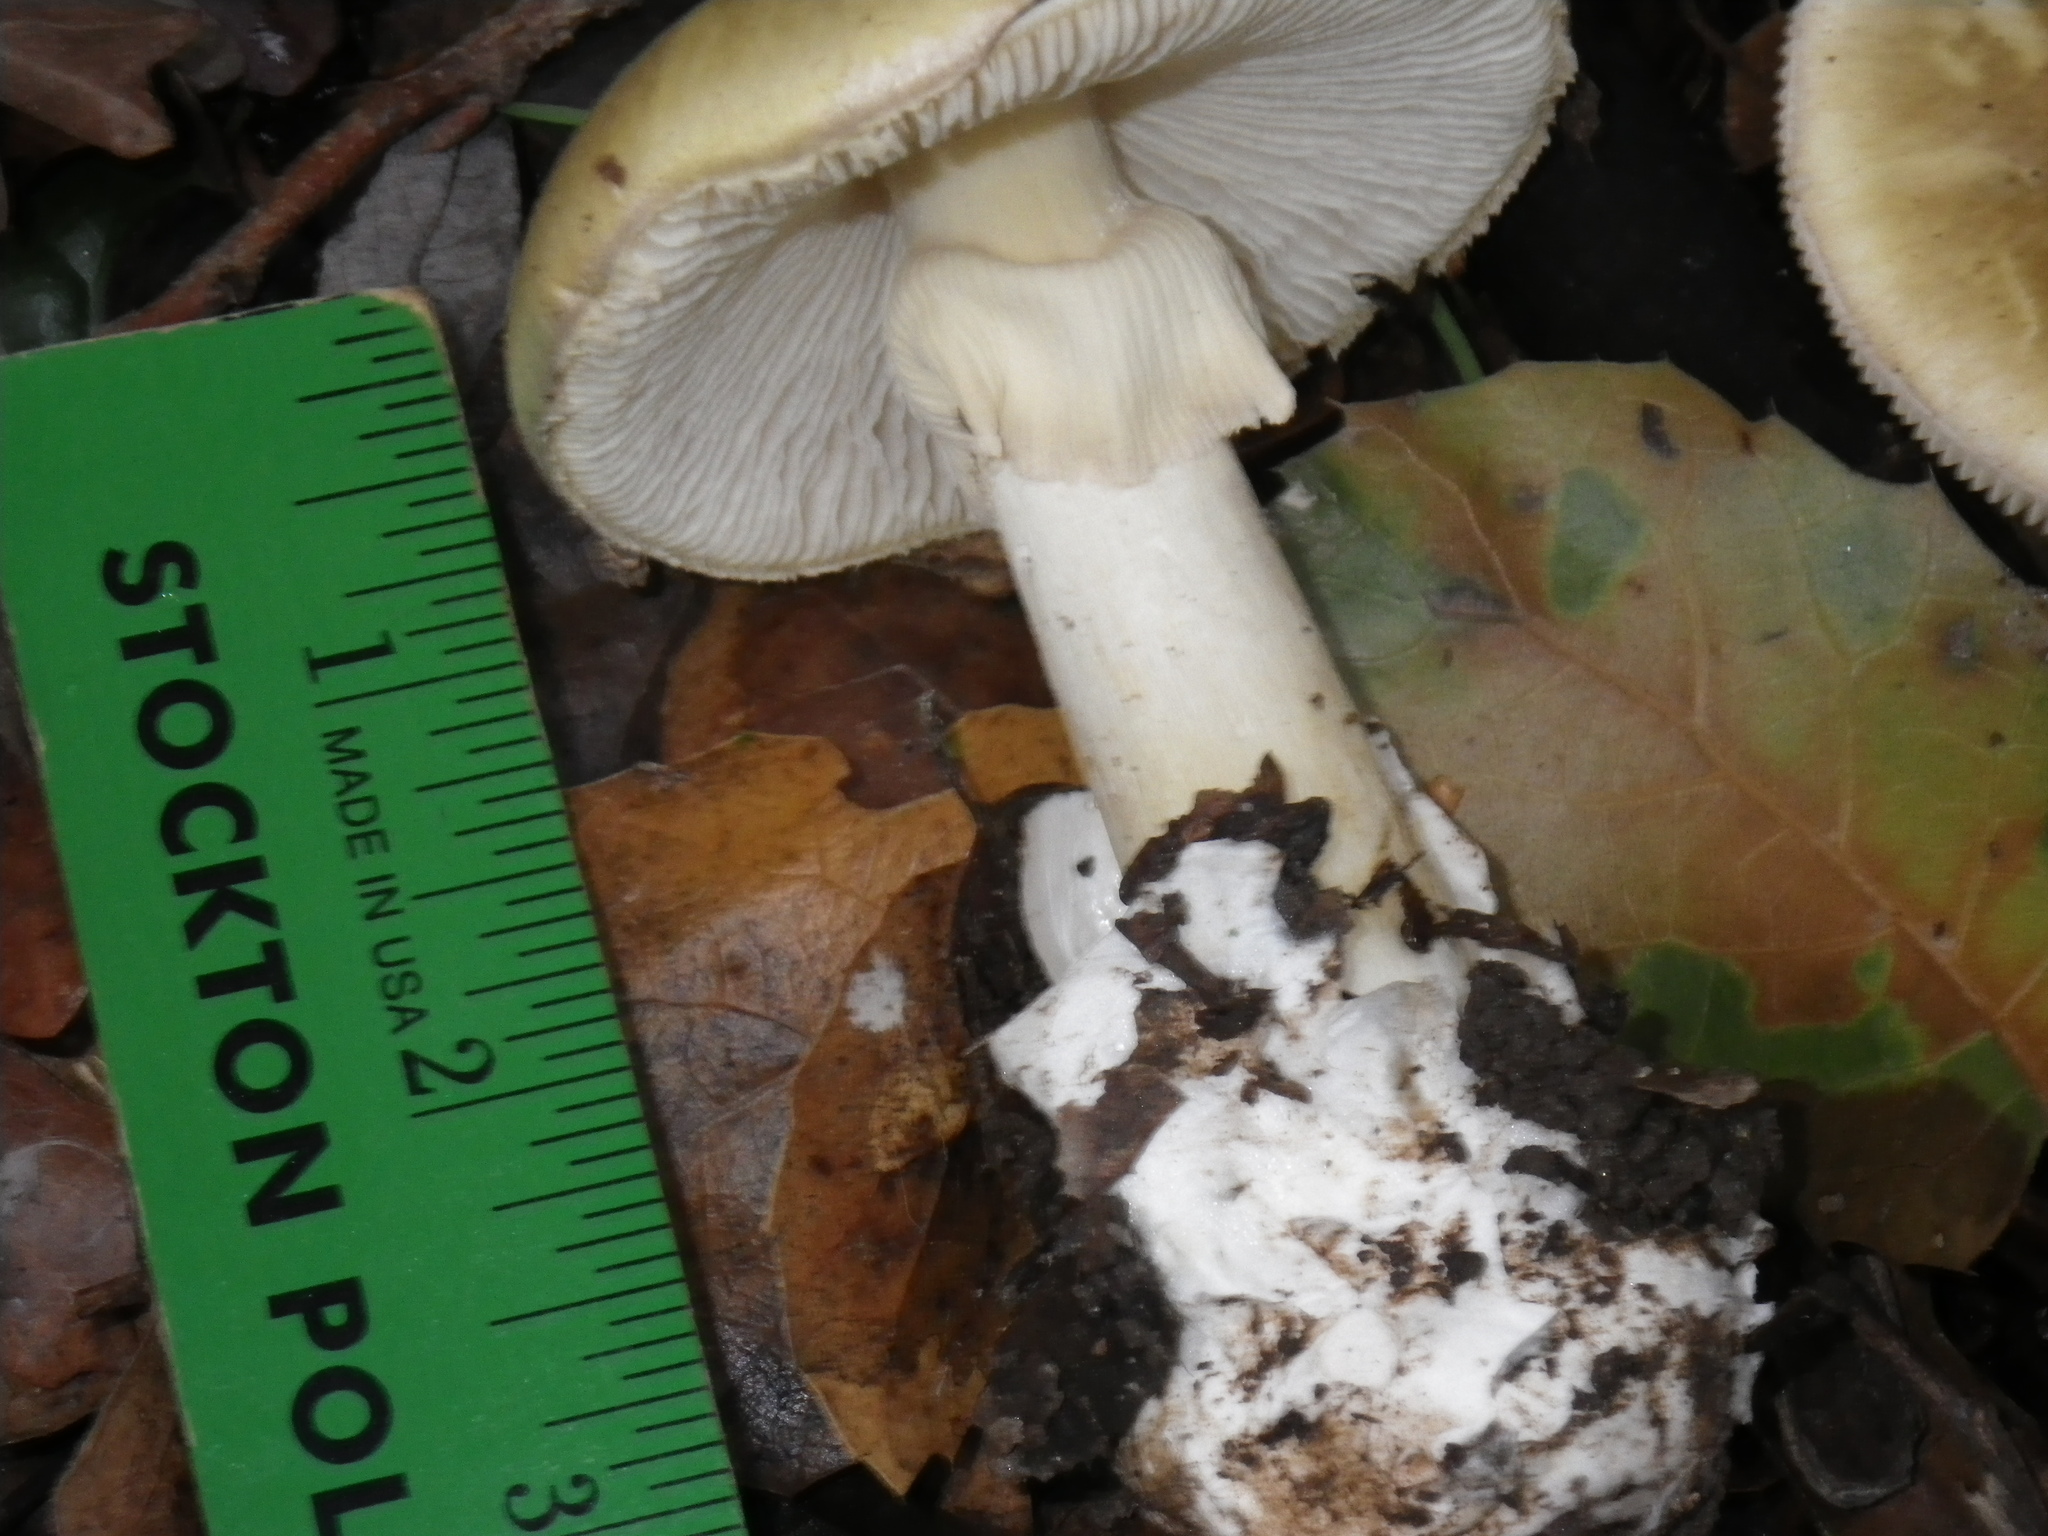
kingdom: Fungi
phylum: Basidiomycota
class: Agaricomycetes
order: Agaricales
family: Amanitaceae
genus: Amanita
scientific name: Amanita phalloides
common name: Death cap
